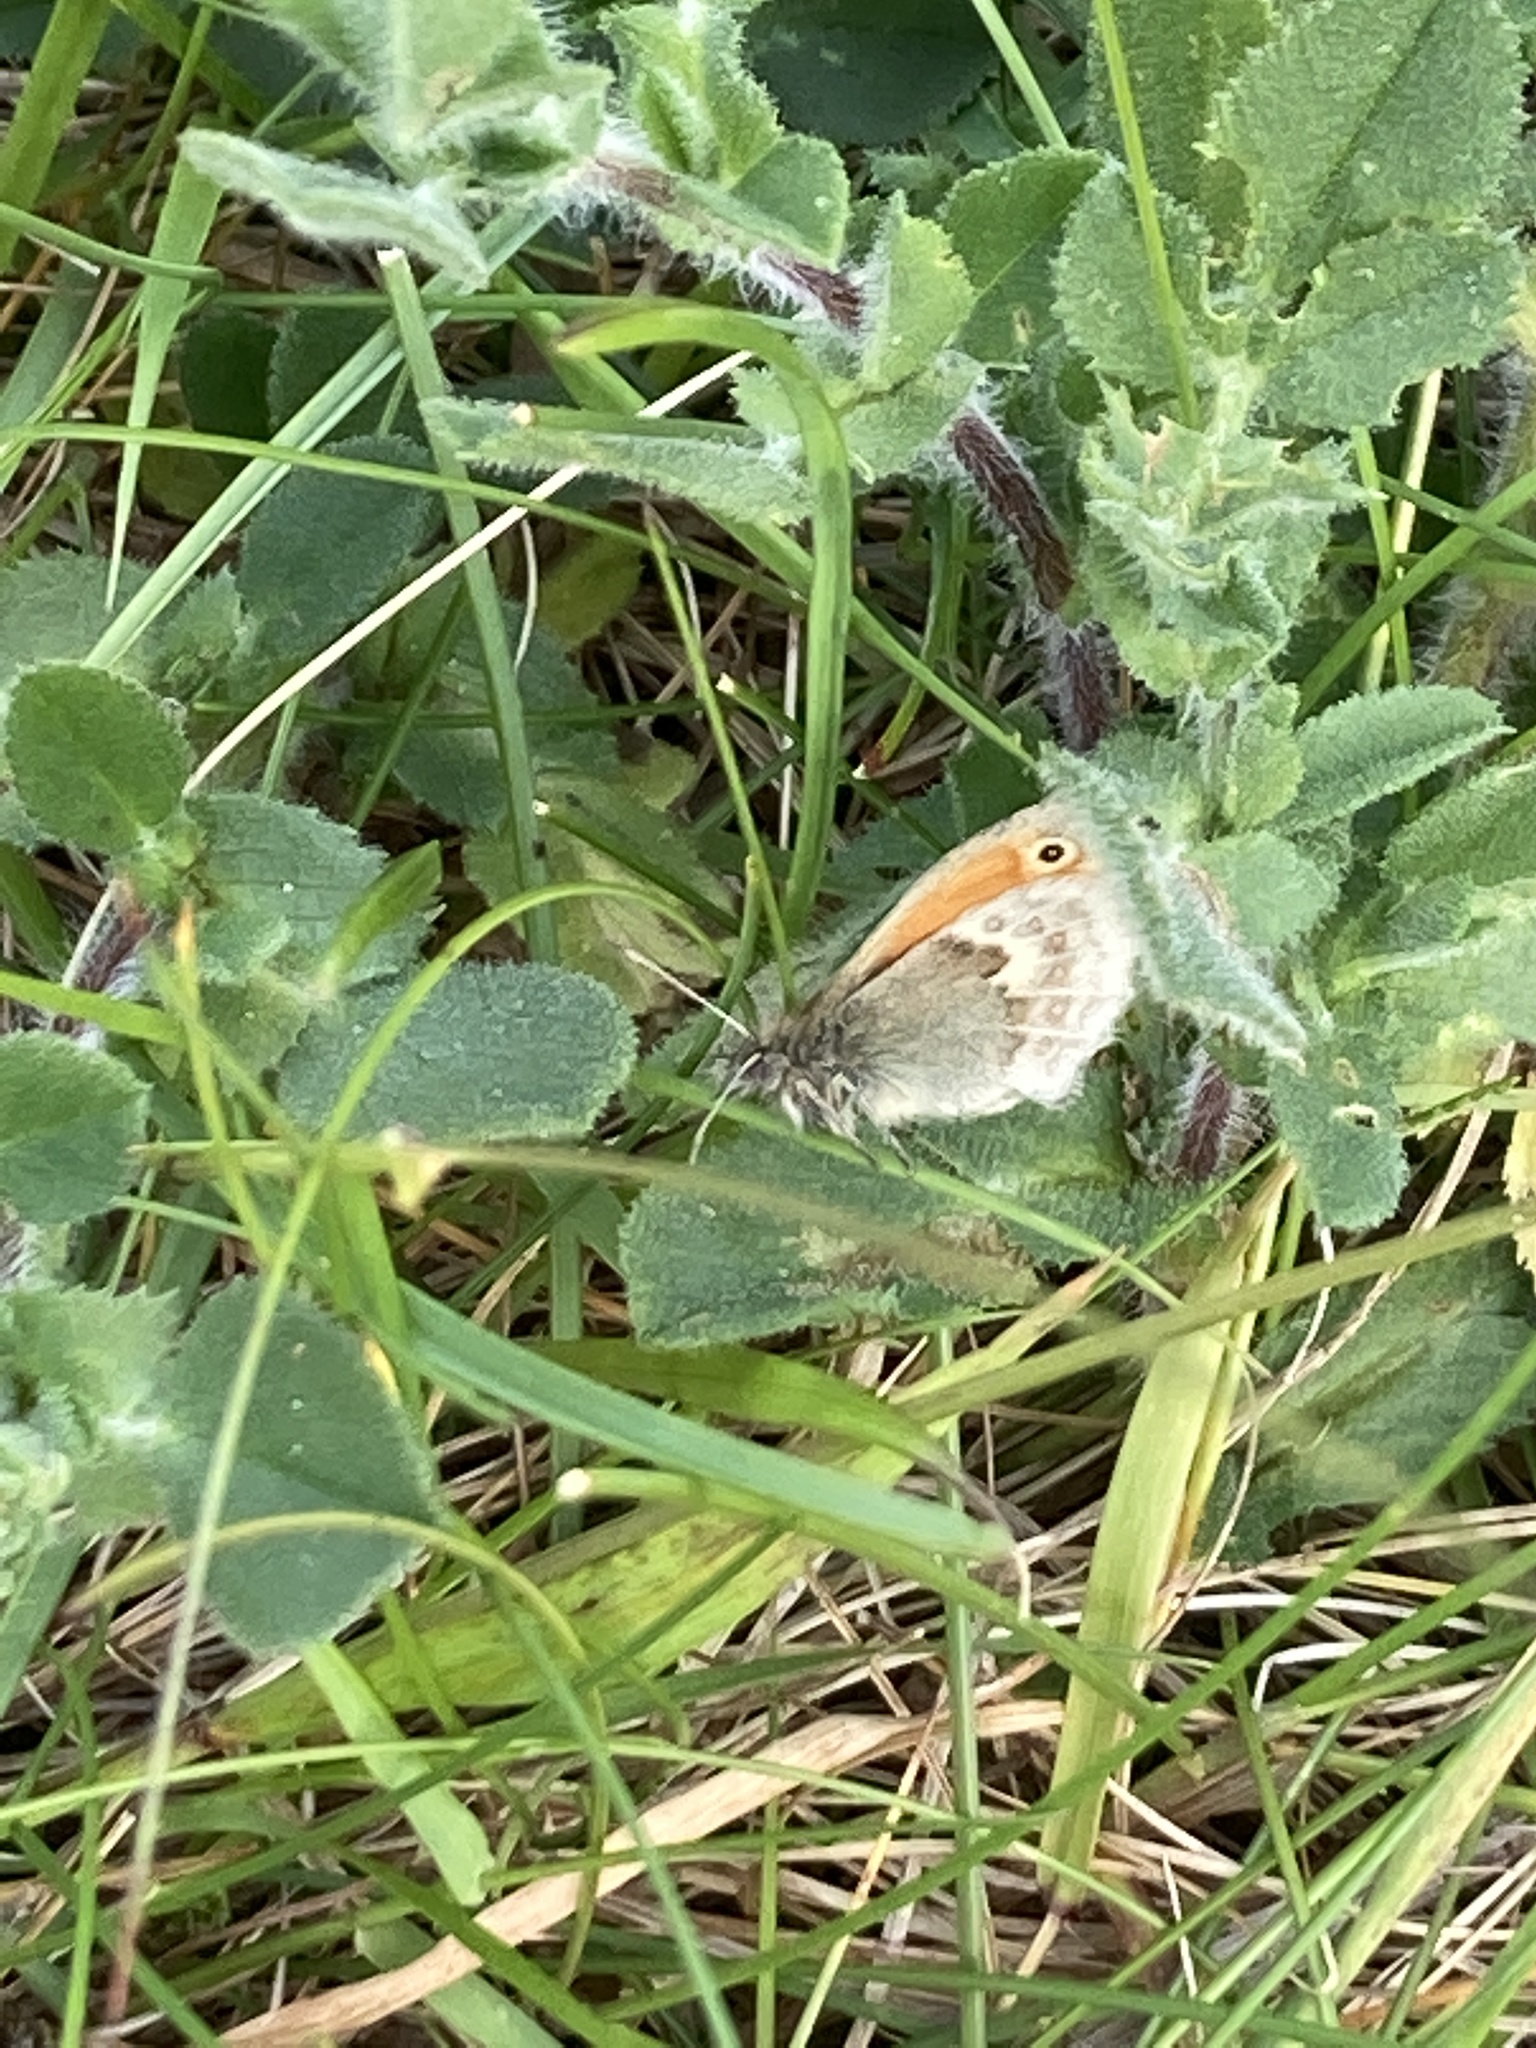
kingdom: Animalia
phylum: Arthropoda
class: Insecta
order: Lepidoptera
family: Nymphalidae
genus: Coenonympha
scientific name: Coenonympha pamphilus
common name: Small heath
